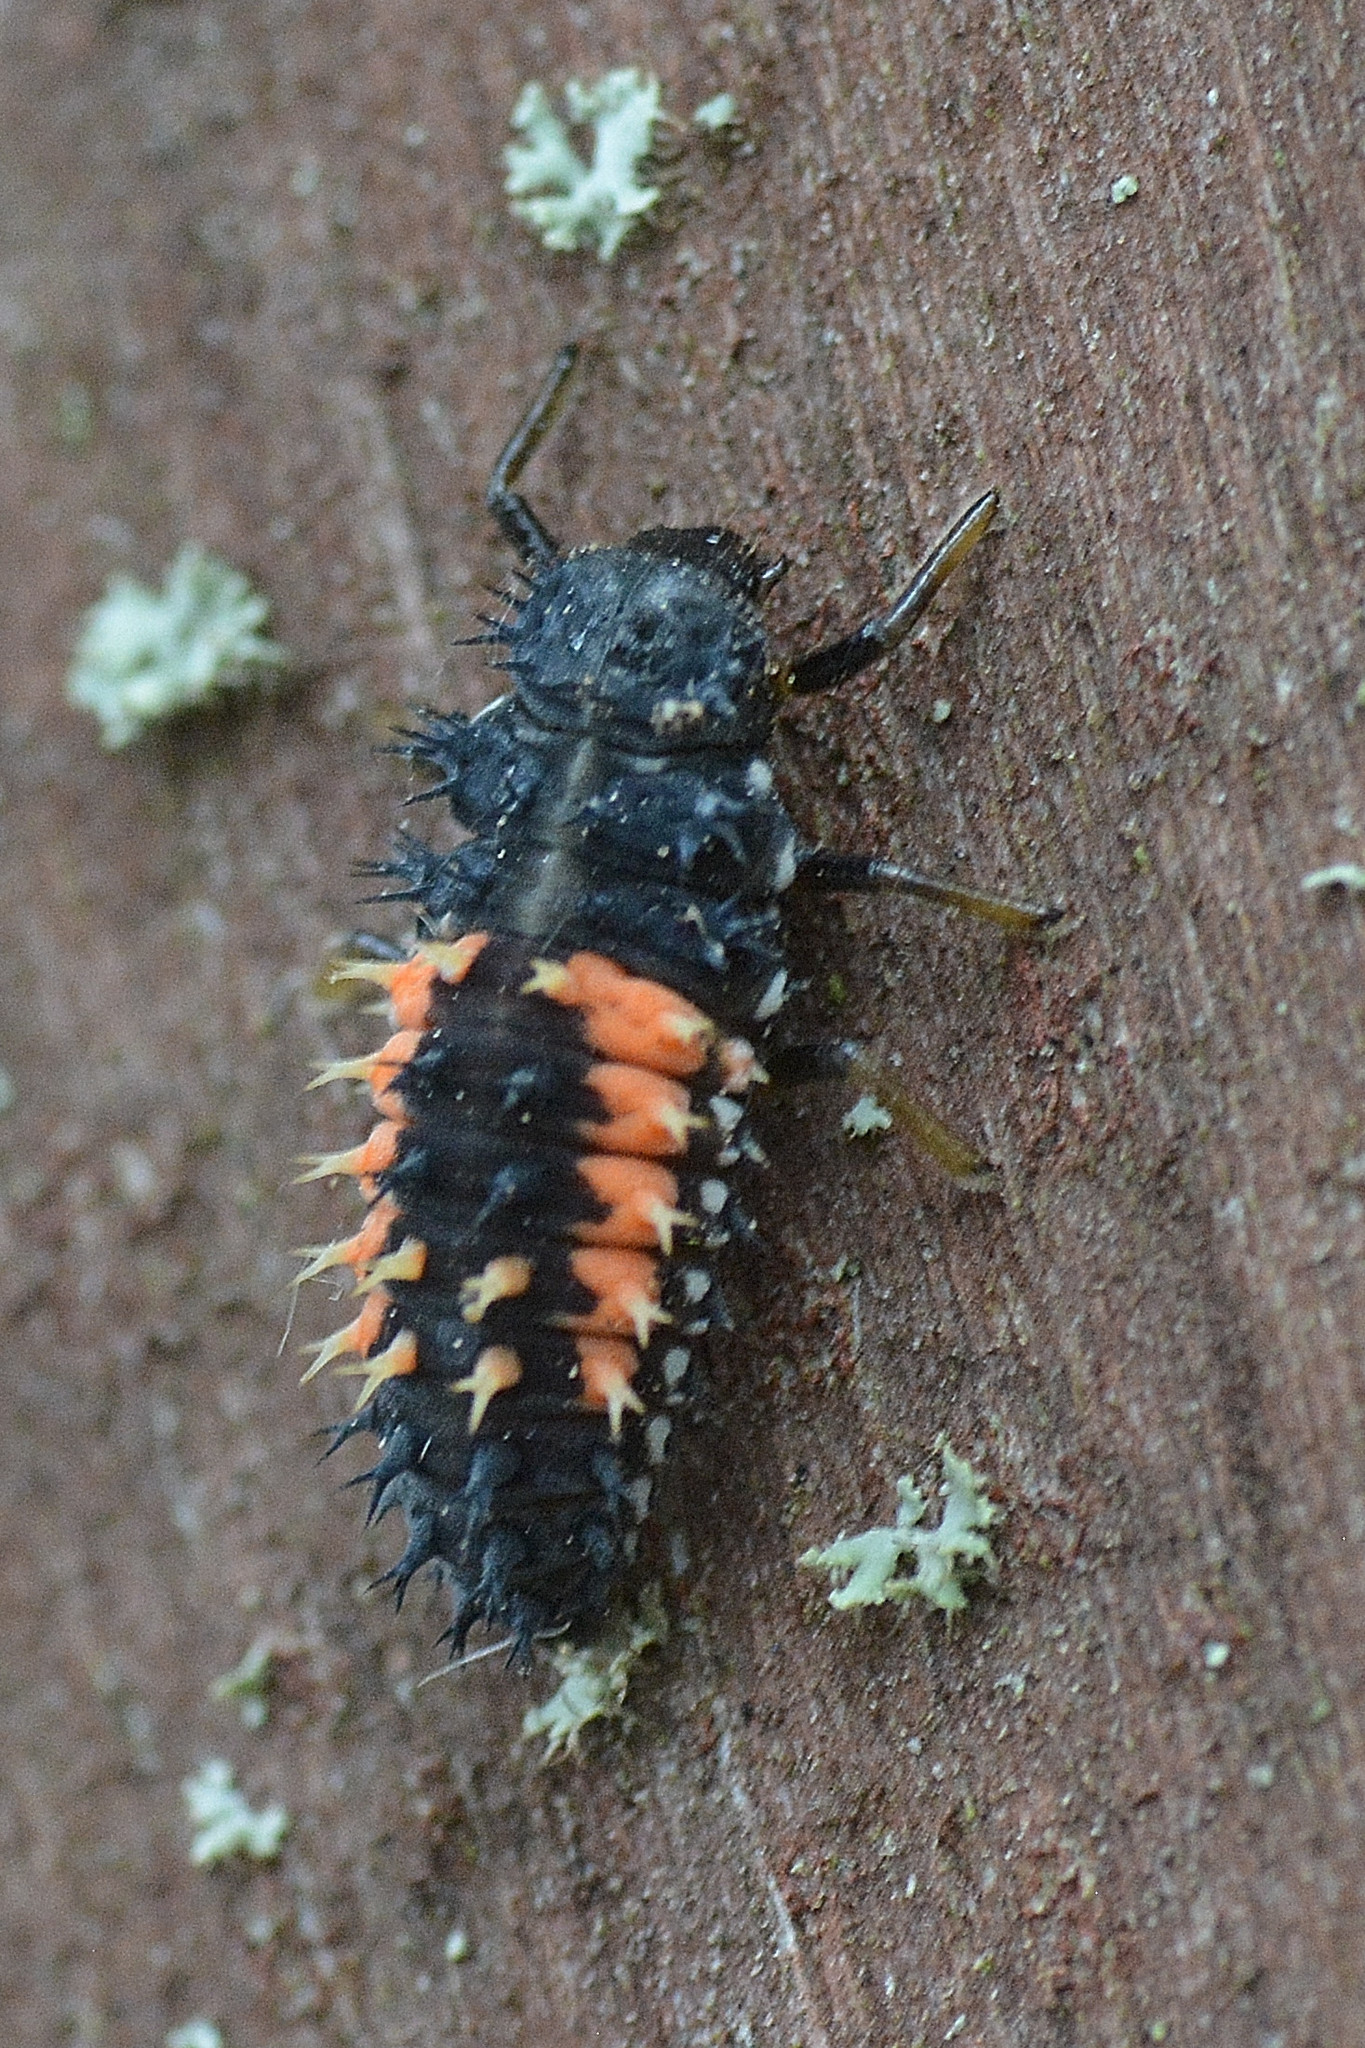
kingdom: Animalia
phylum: Arthropoda
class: Insecta
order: Coleoptera
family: Coccinellidae
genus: Harmonia
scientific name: Harmonia axyridis
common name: Harlequin ladybird
